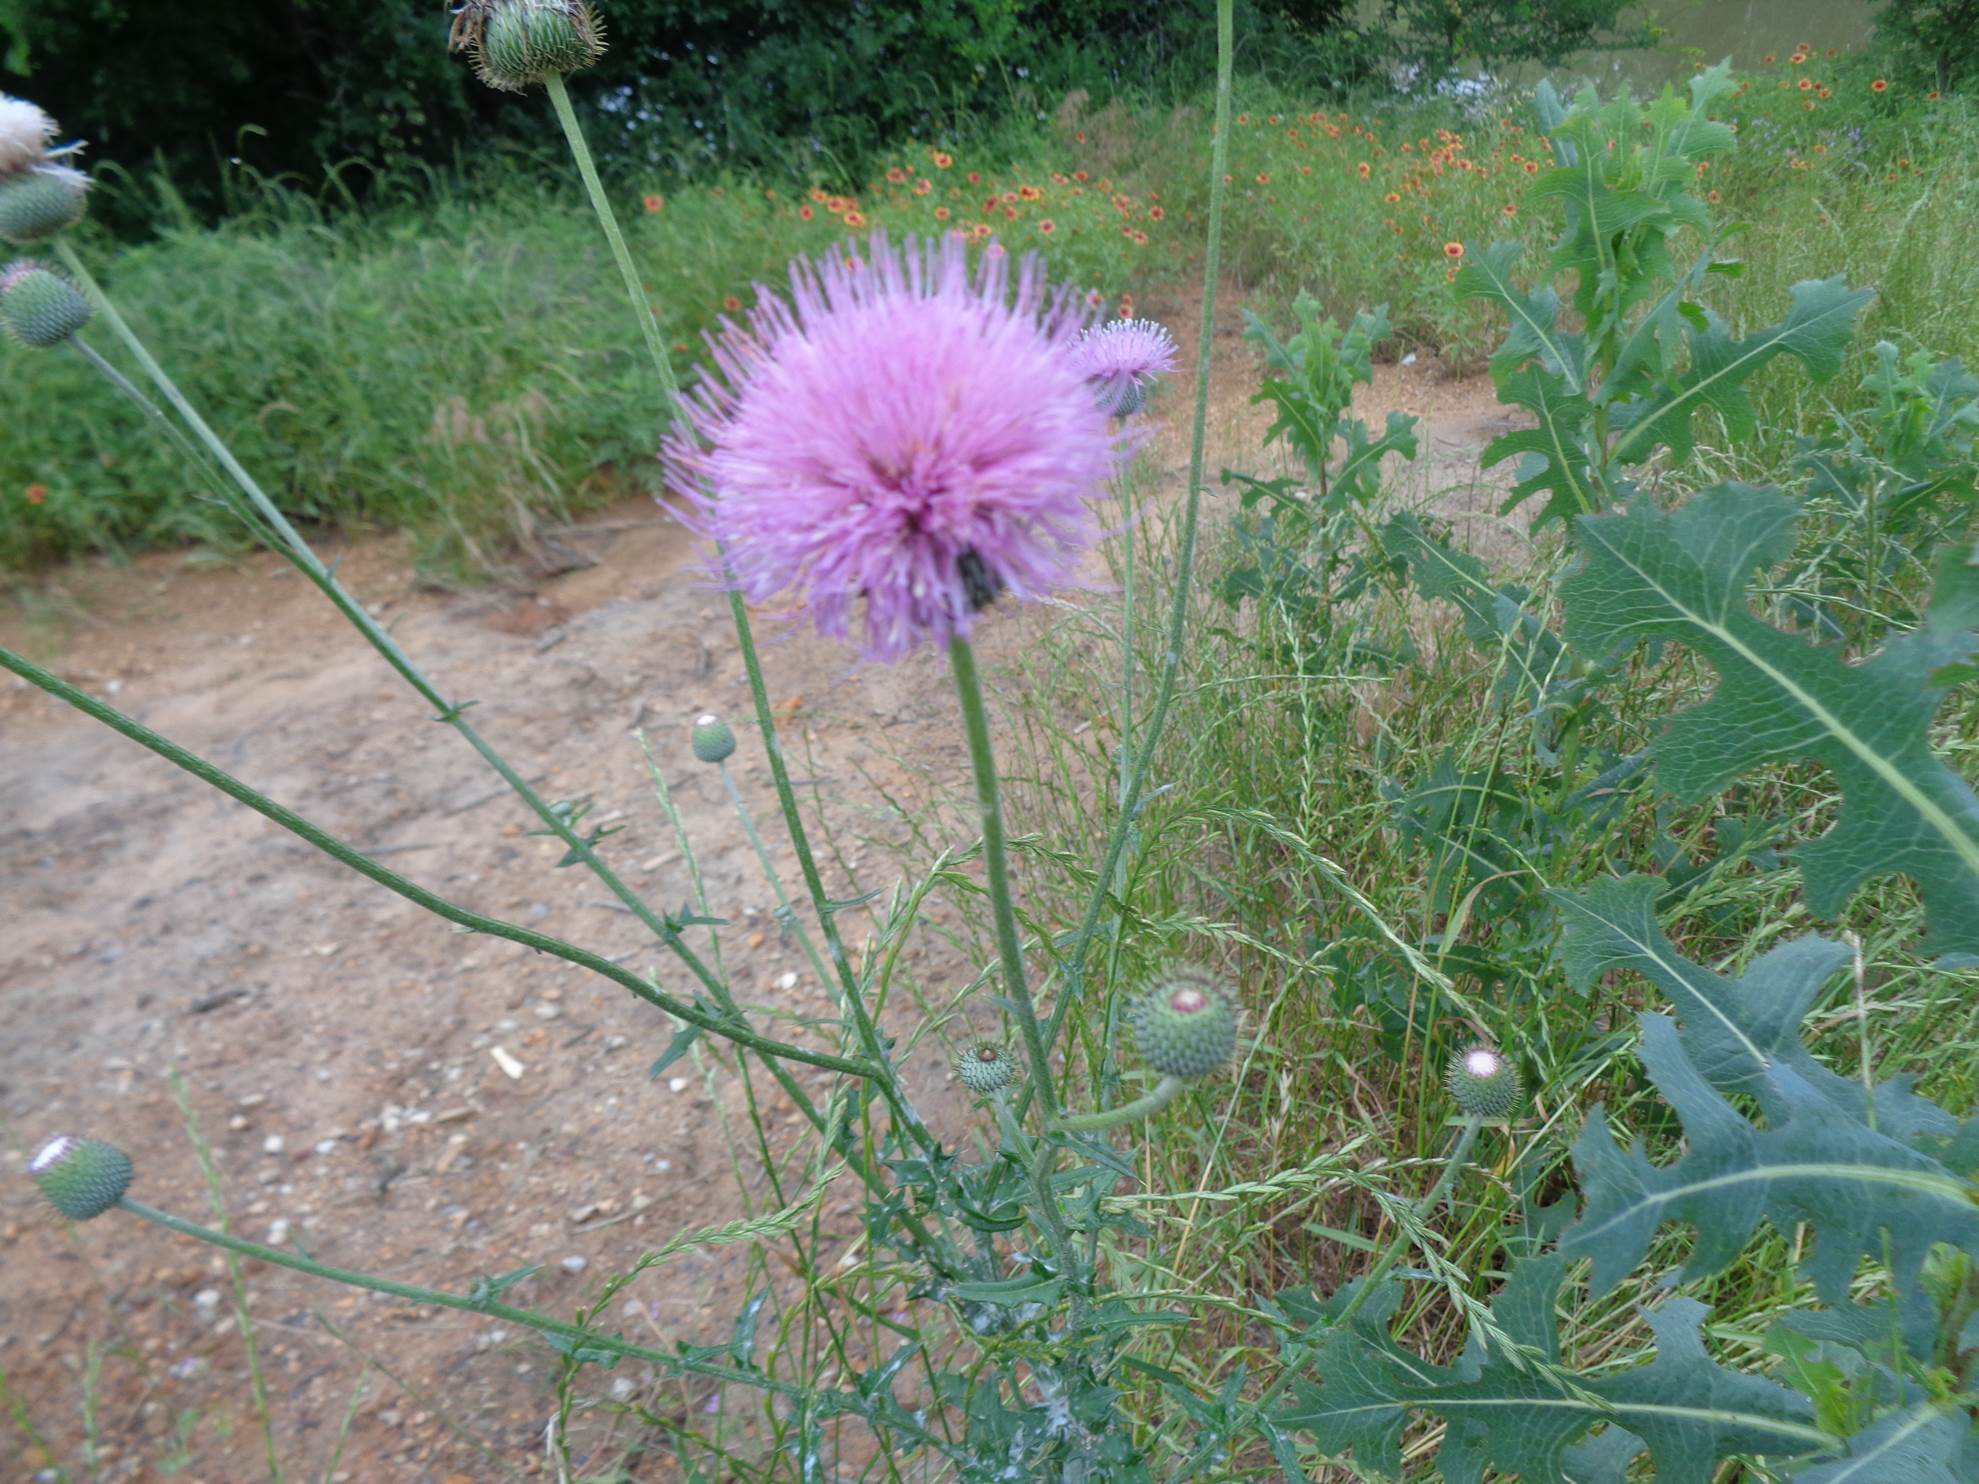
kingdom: Plantae
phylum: Tracheophyta
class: Magnoliopsida
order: Asterales
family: Asteraceae
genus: Cirsium
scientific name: Cirsium texanum
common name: Texas purple thistle
